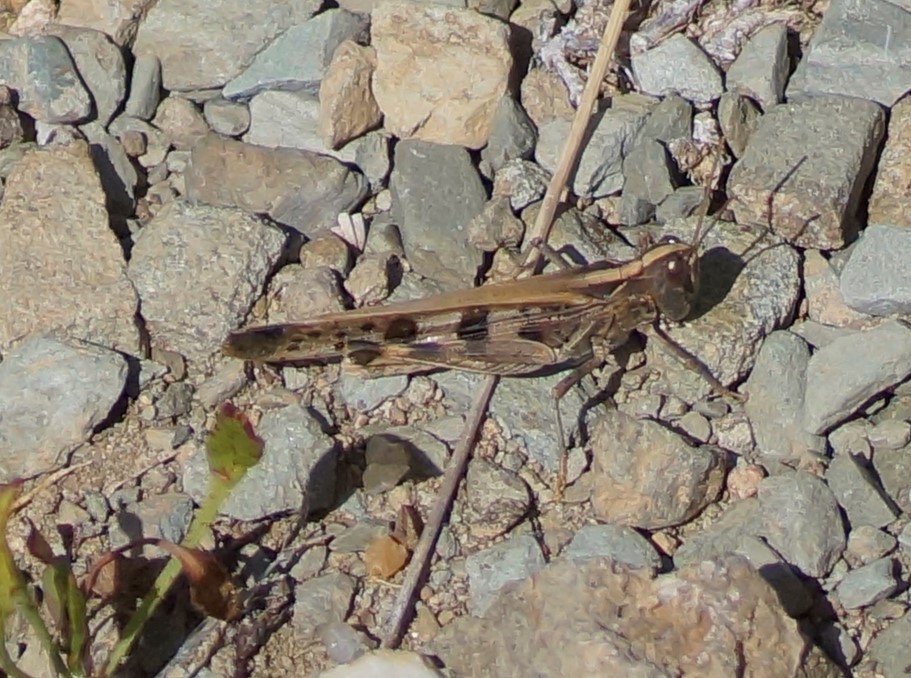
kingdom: Animalia
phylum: Arthropoda
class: Insecta
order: Orthoptera
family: Acrididae
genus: Chortoicetes
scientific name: Chortoicetes terminifera
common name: Australian plague locust
